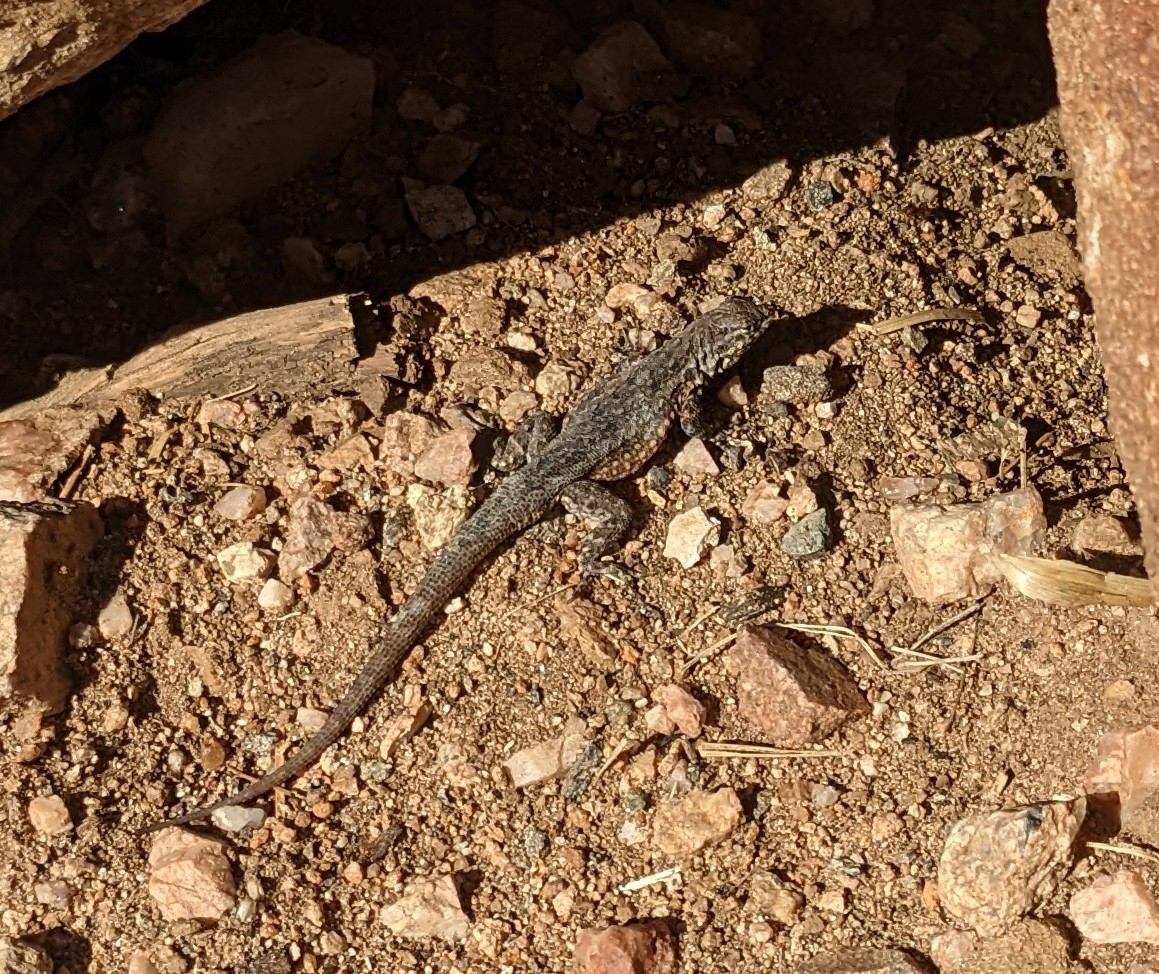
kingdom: Animalia
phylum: Chordata
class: Squamata
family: Phrynosomatidae
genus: Uta
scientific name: Uta stansburiana
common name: Side-blotched lizard
